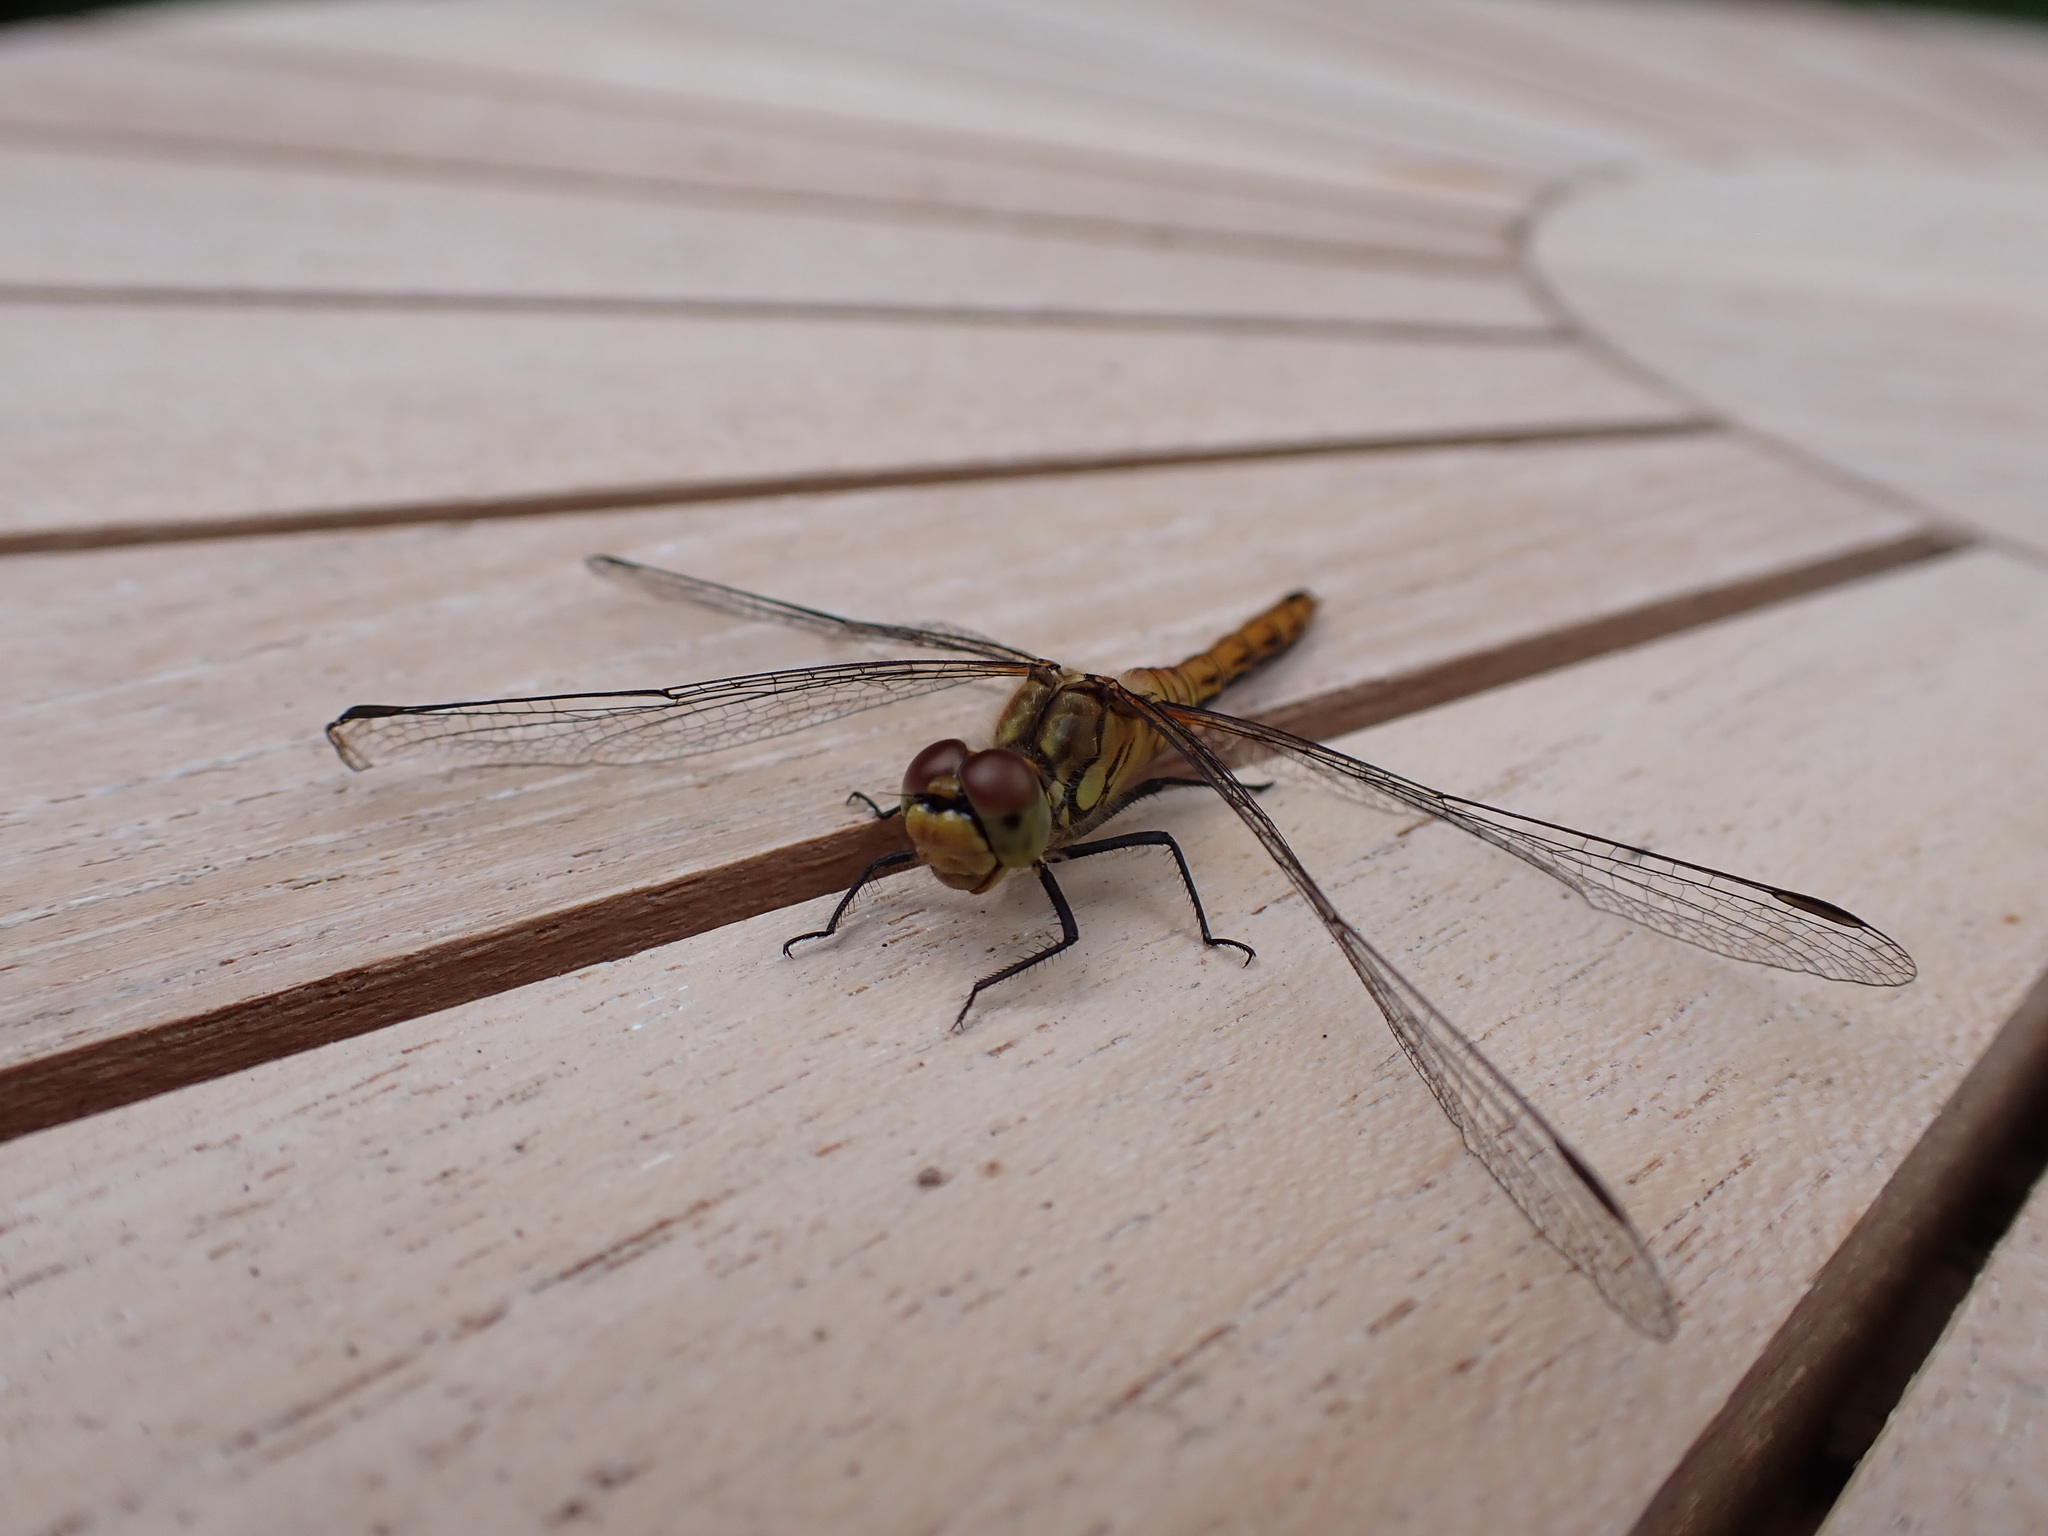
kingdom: Animalia
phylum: Arthropoda
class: Insecta
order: Odonata
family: Libellulidae
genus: Sympetrum
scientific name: Sympetrum sanguineum
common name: Ruddy darter
